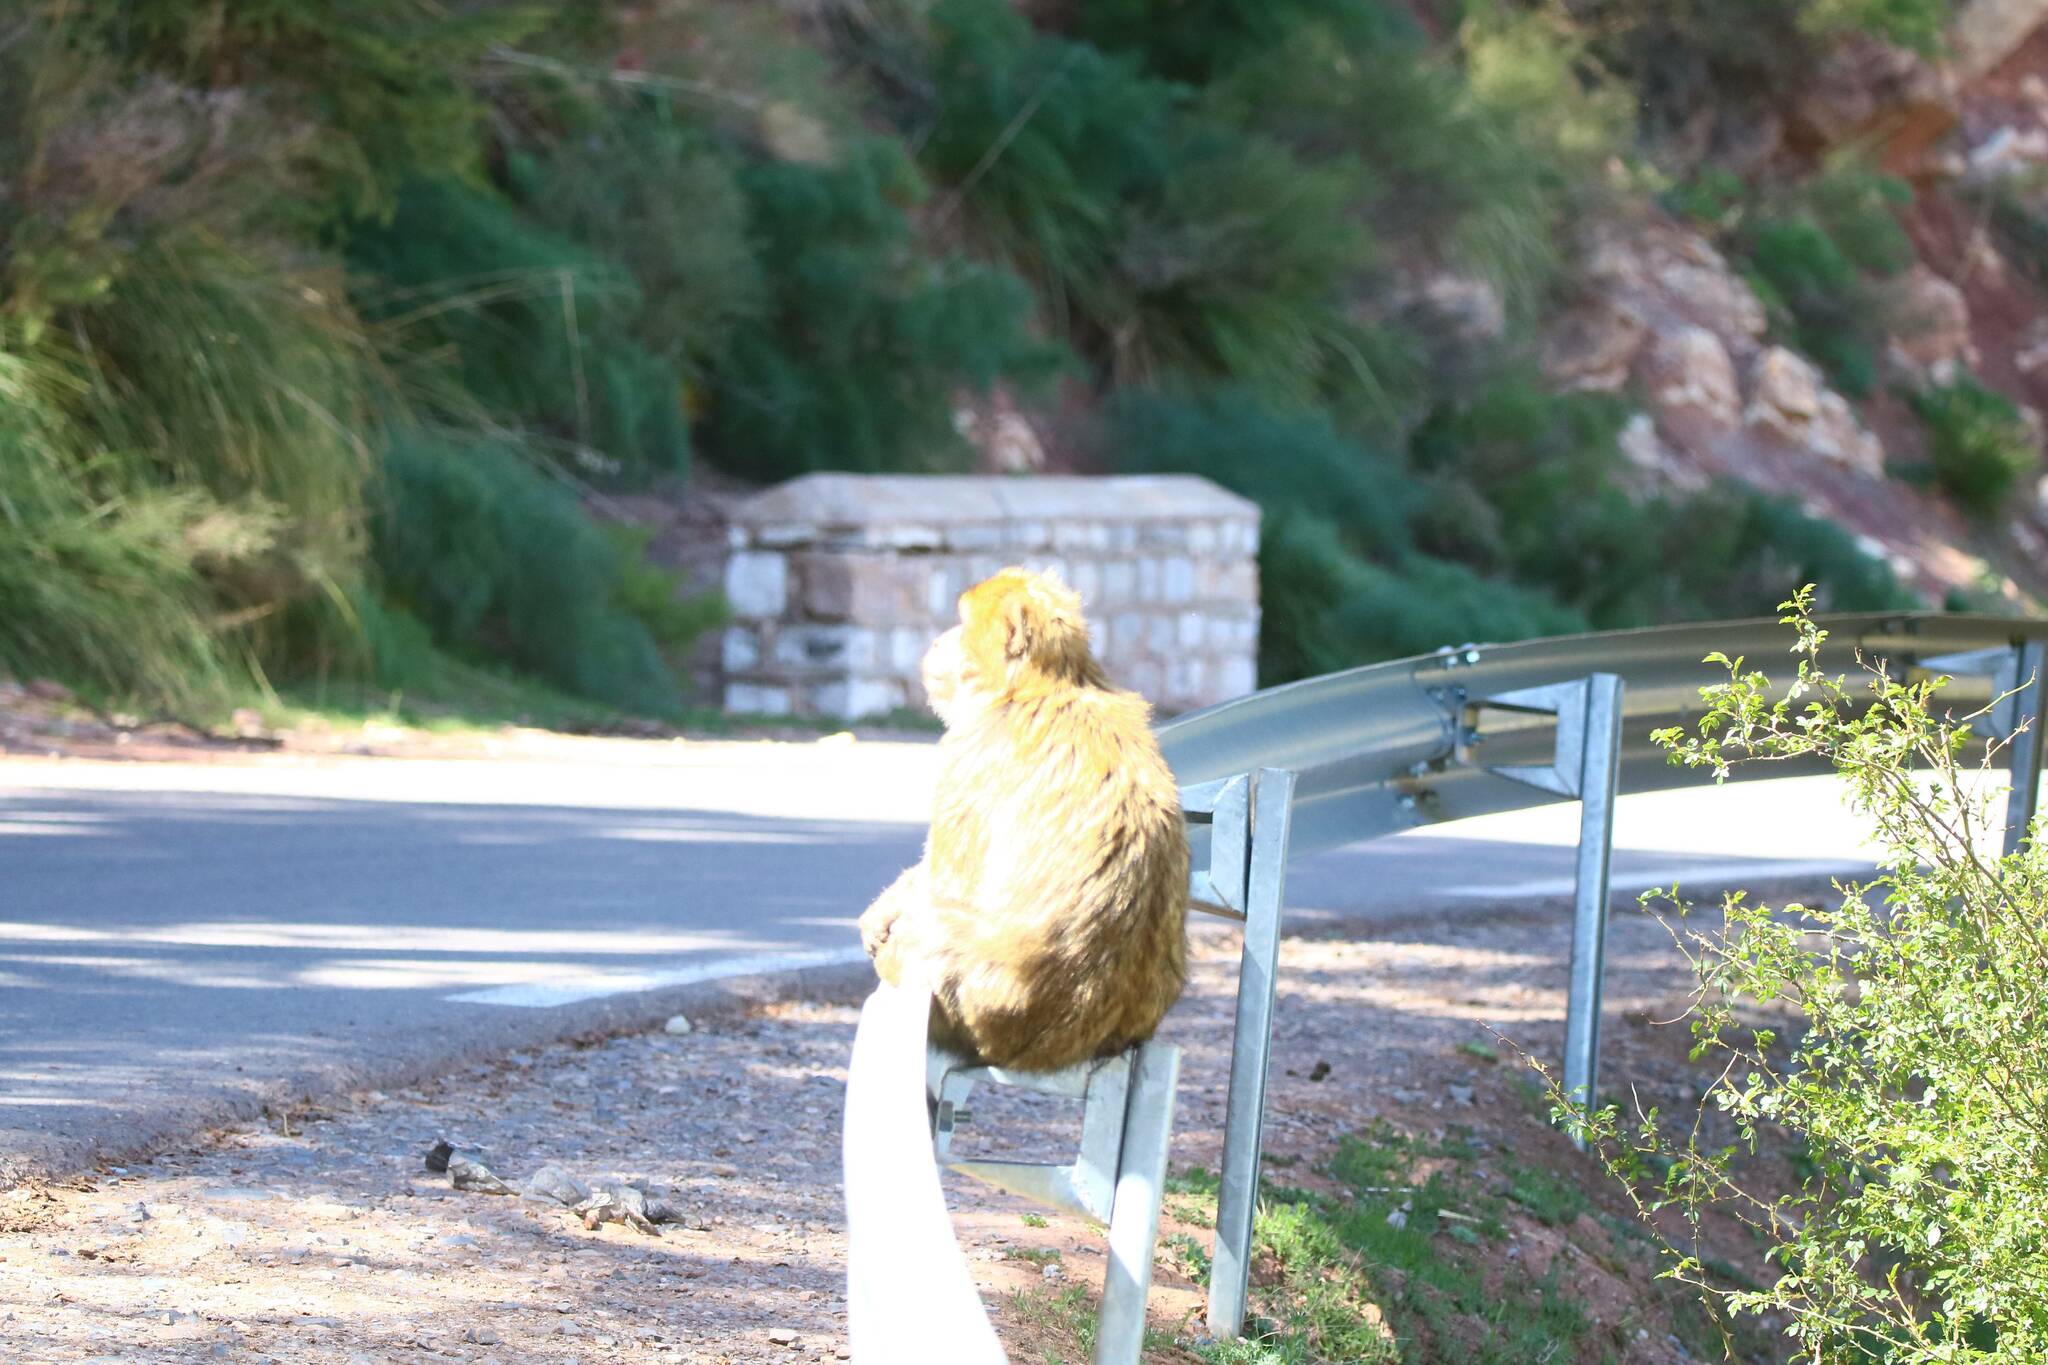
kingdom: Animalia
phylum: Chordata
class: Mammalia
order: Primates
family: Cercopithecidae
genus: Macaca
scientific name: Macaca sylvanus
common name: Barbary macaque
